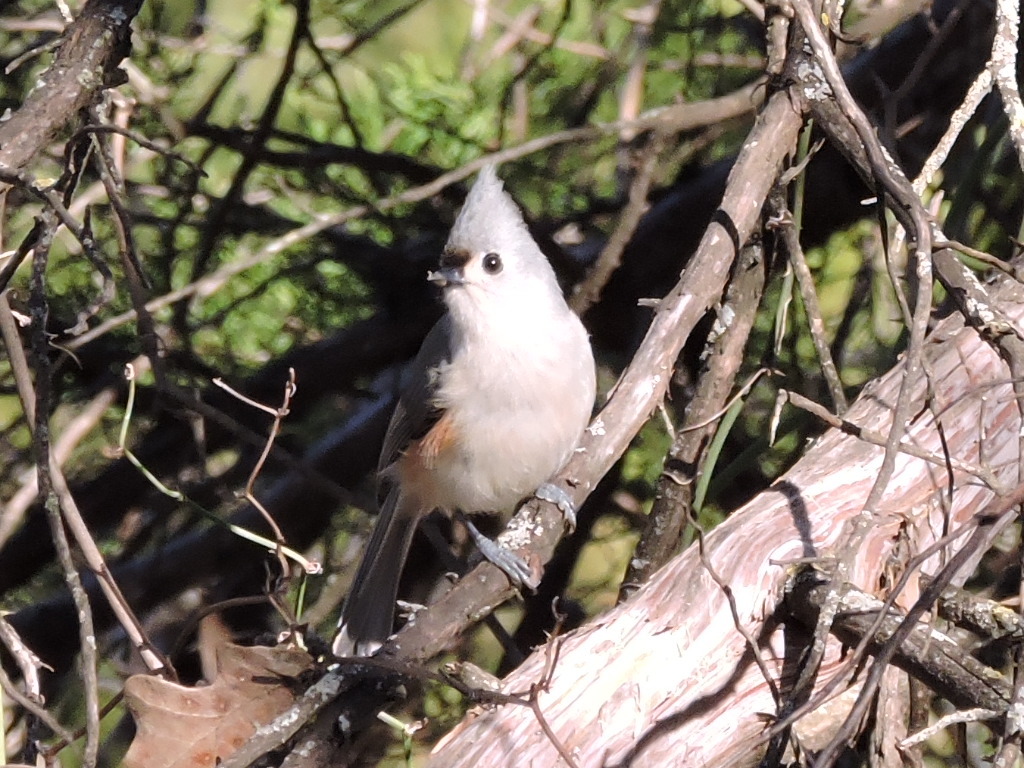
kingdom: Animalia
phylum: Chordata
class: Aves
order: Passeriformes
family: Paridae
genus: Baeolophus
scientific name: Baeolophus bicolor
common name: Tufted titmouse
